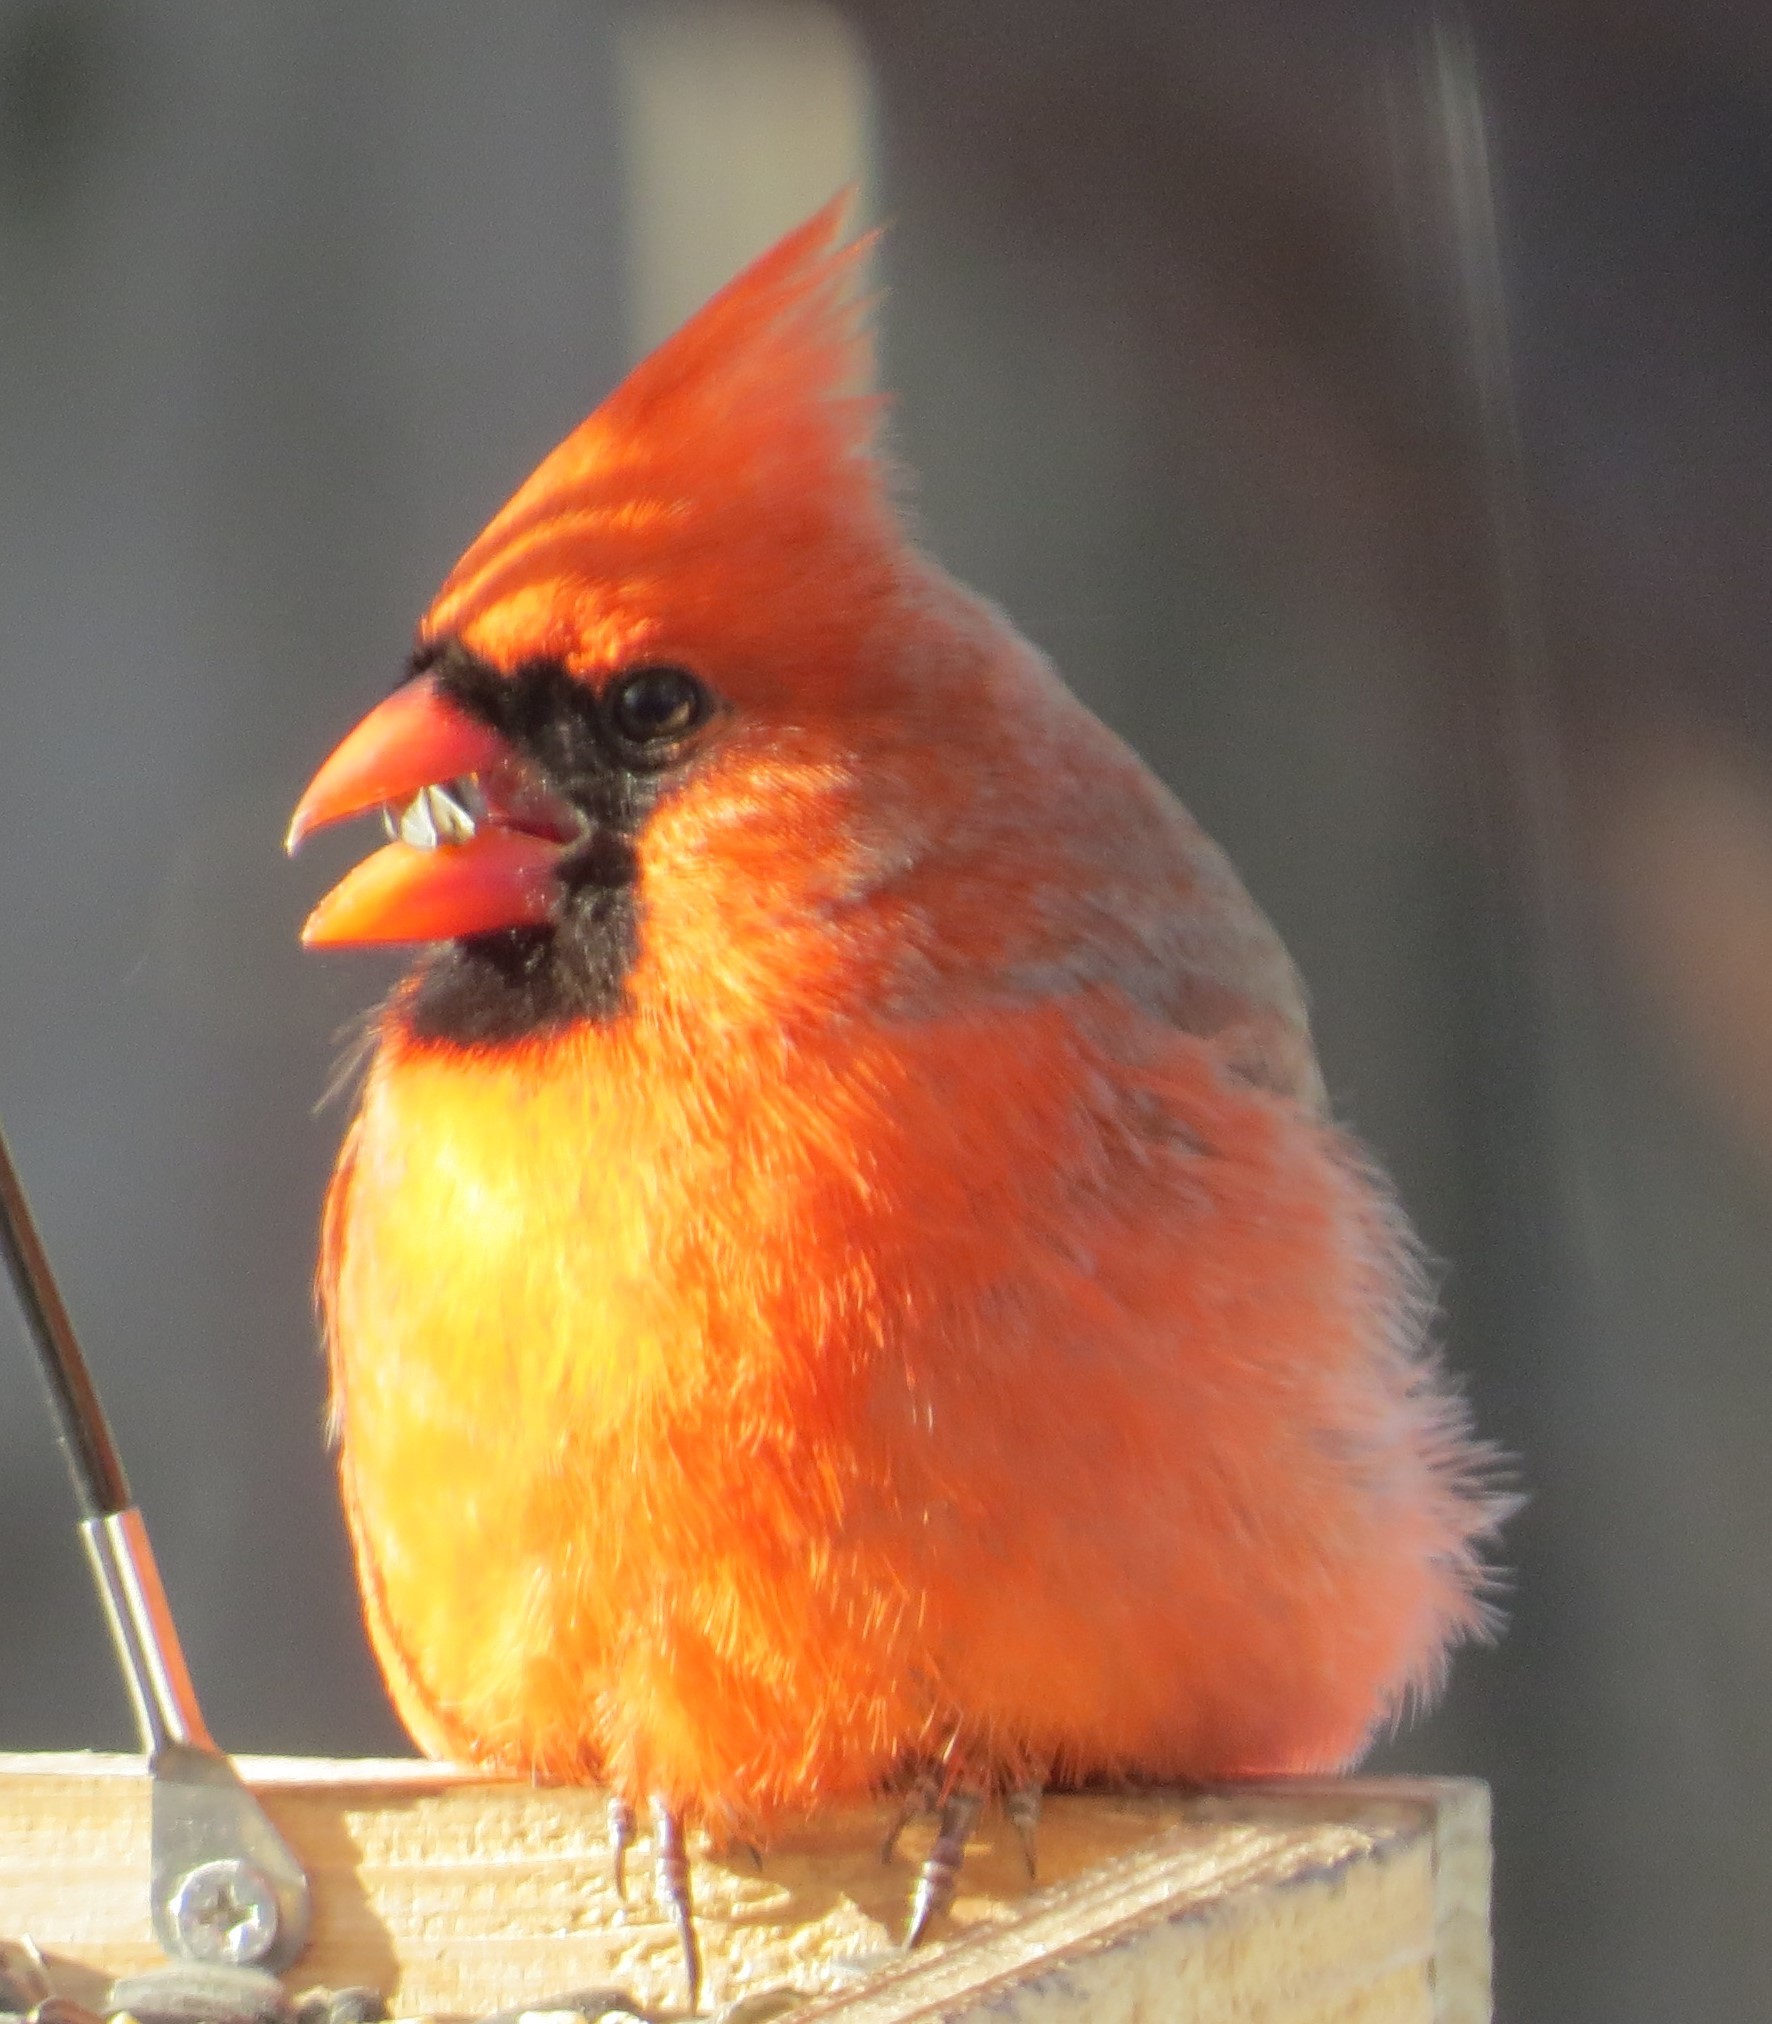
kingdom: Animalia
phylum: Chordata
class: Aves
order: Passeriformes
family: Cardinalidae
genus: Cardinalis
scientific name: Cardinalis cardinalis
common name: Northern cardinal
